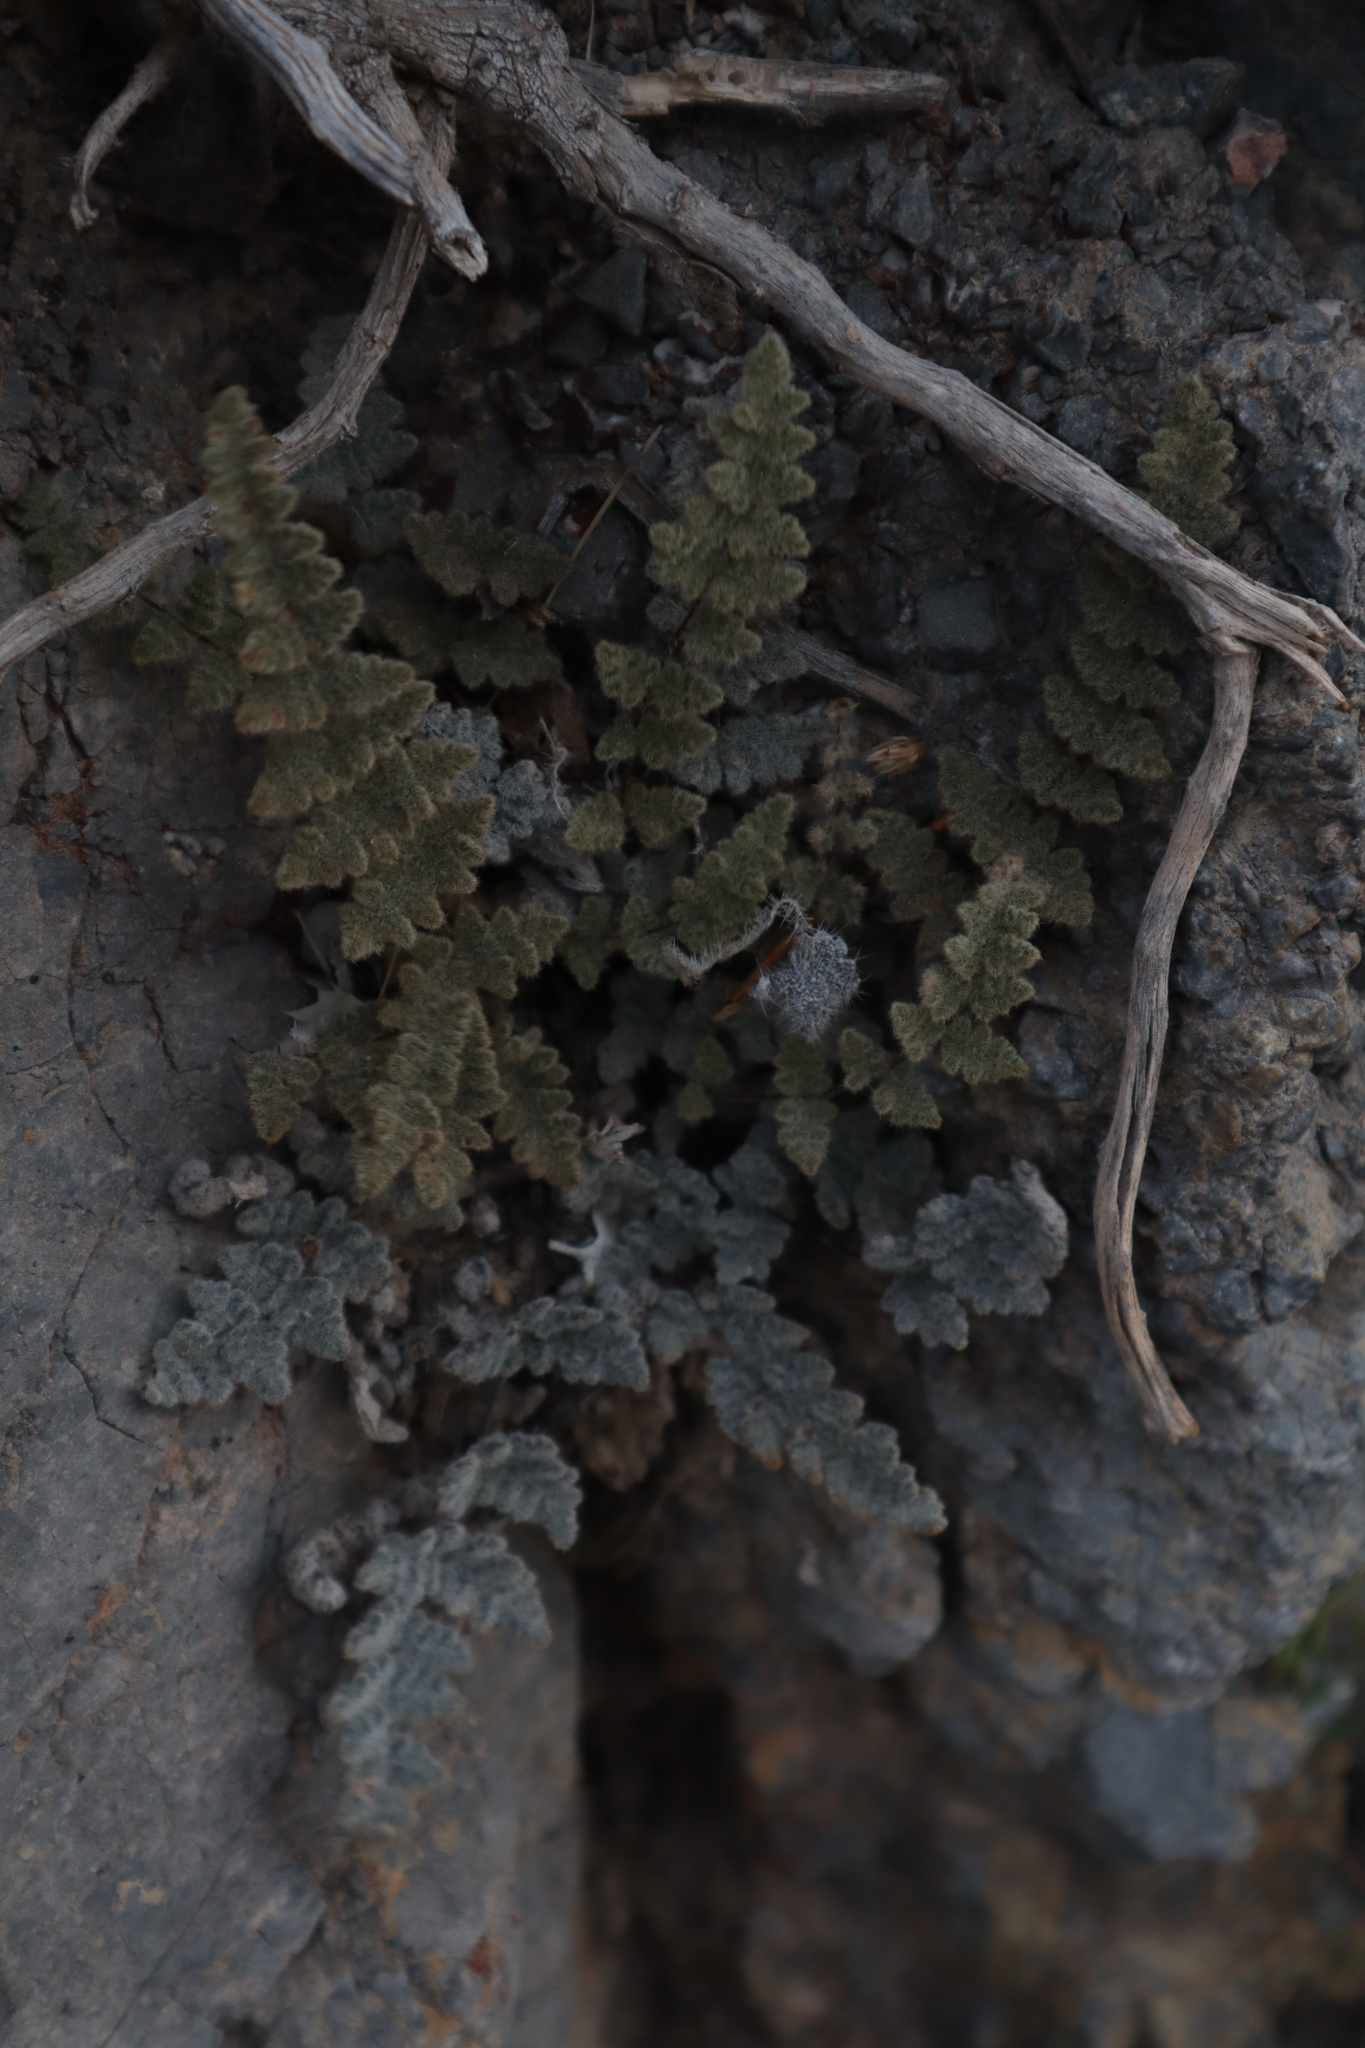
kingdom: Plantae
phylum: Tracheophyta
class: Polypodiopsida
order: Polypodiales
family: Pteridaceae
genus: Myriopteris
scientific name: Myriopteris parryi
